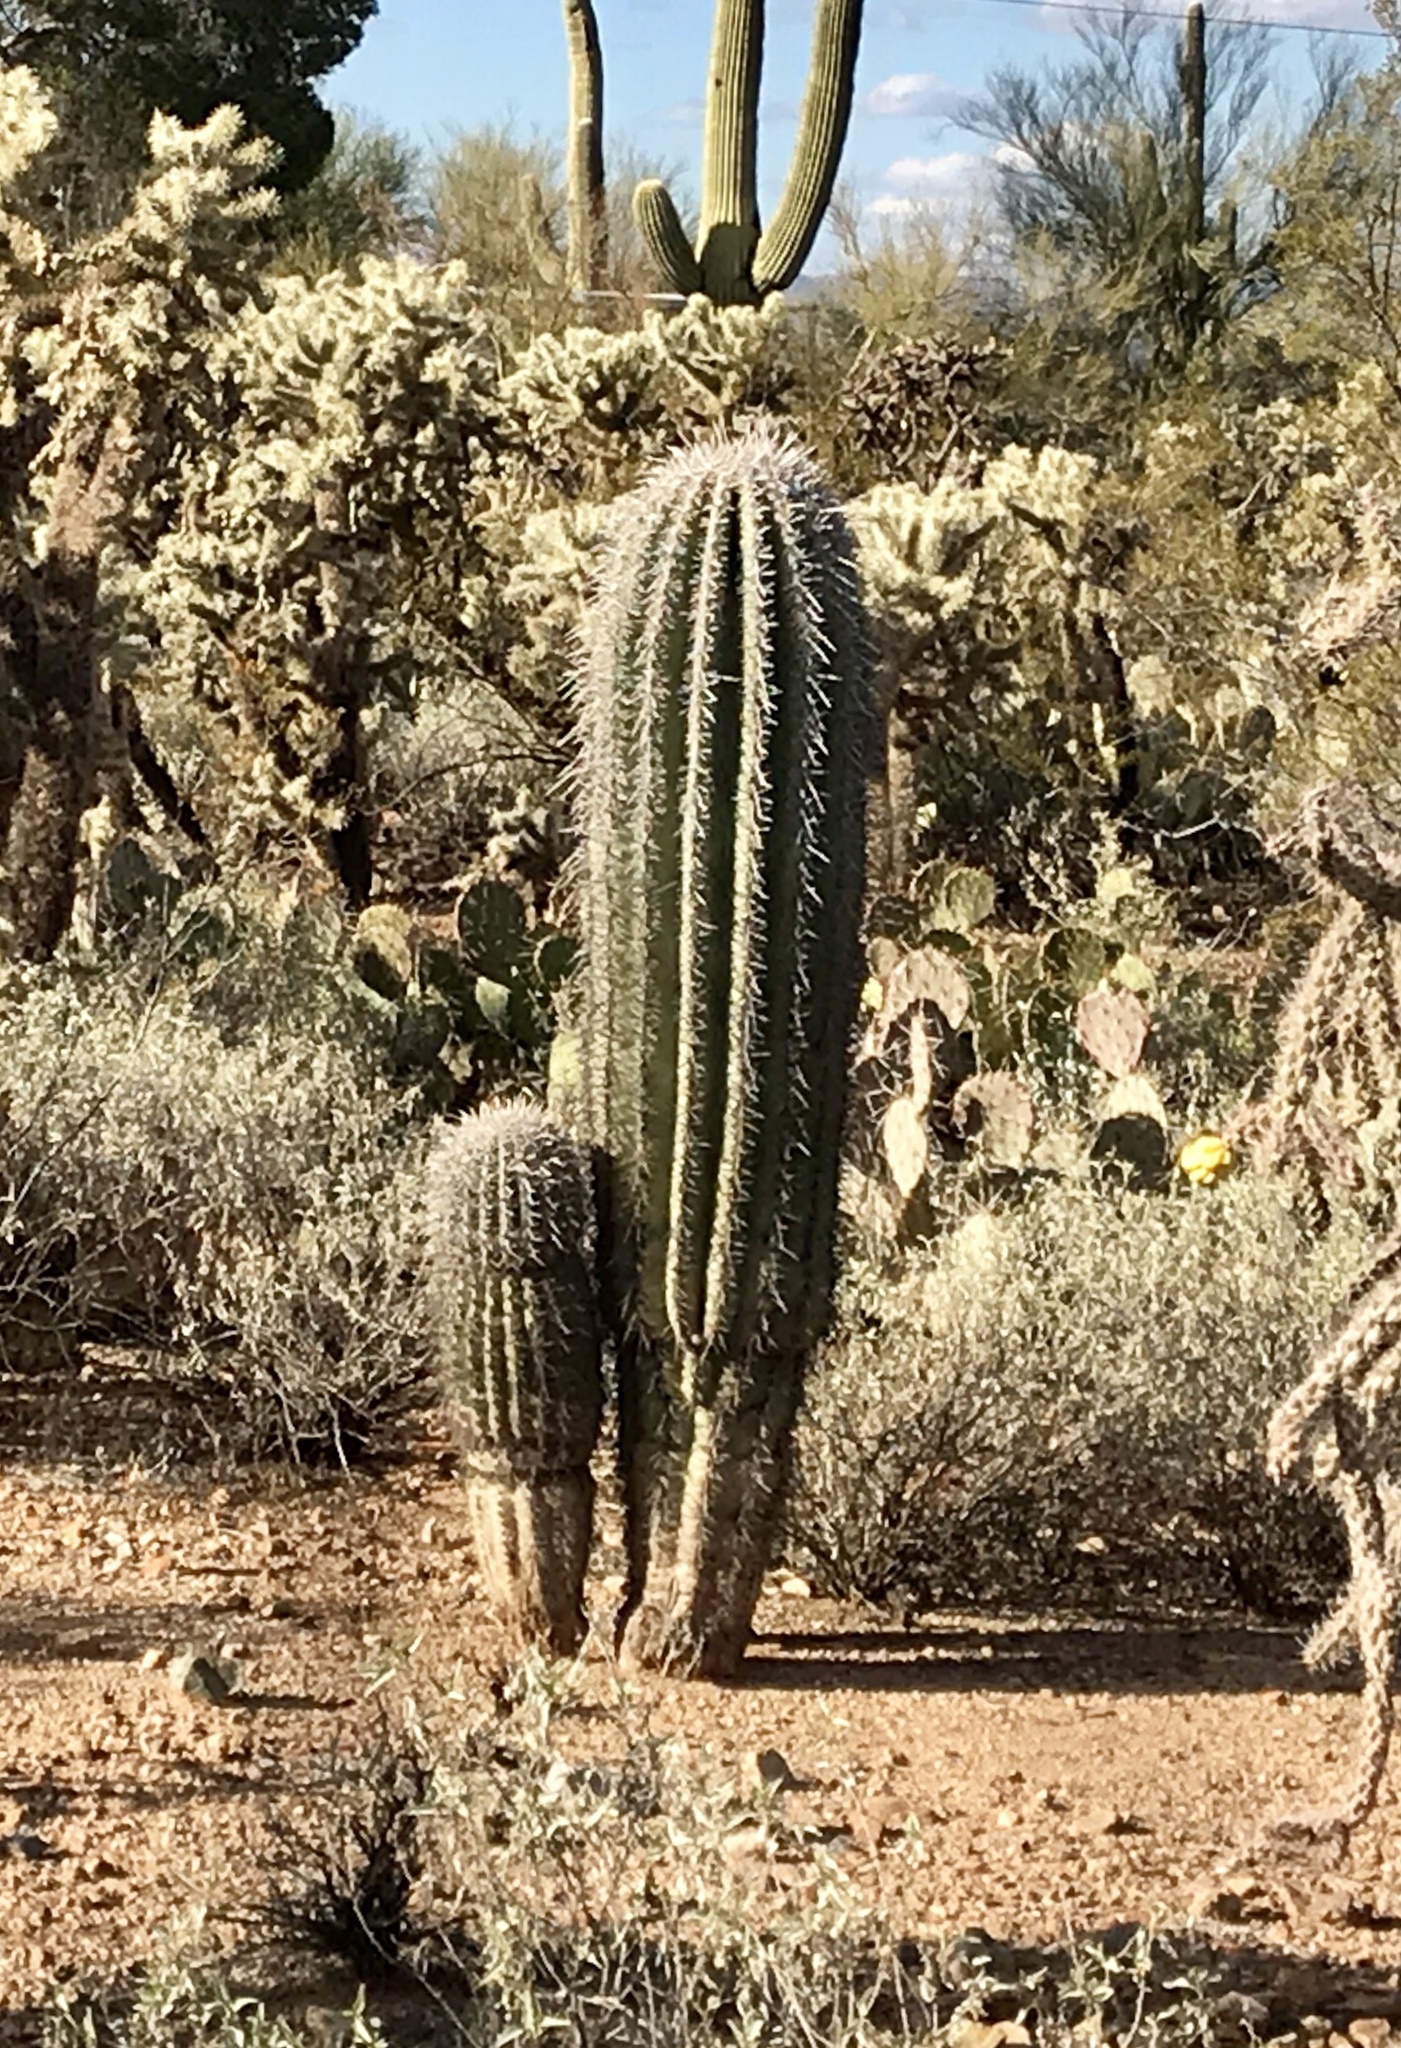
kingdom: Plantae
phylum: Tracheophyta
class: Magnoliopsida
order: Caryophyllales
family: Cactaceae
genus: Carnegiea
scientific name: Carnegiea gigantea
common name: Saguaro
